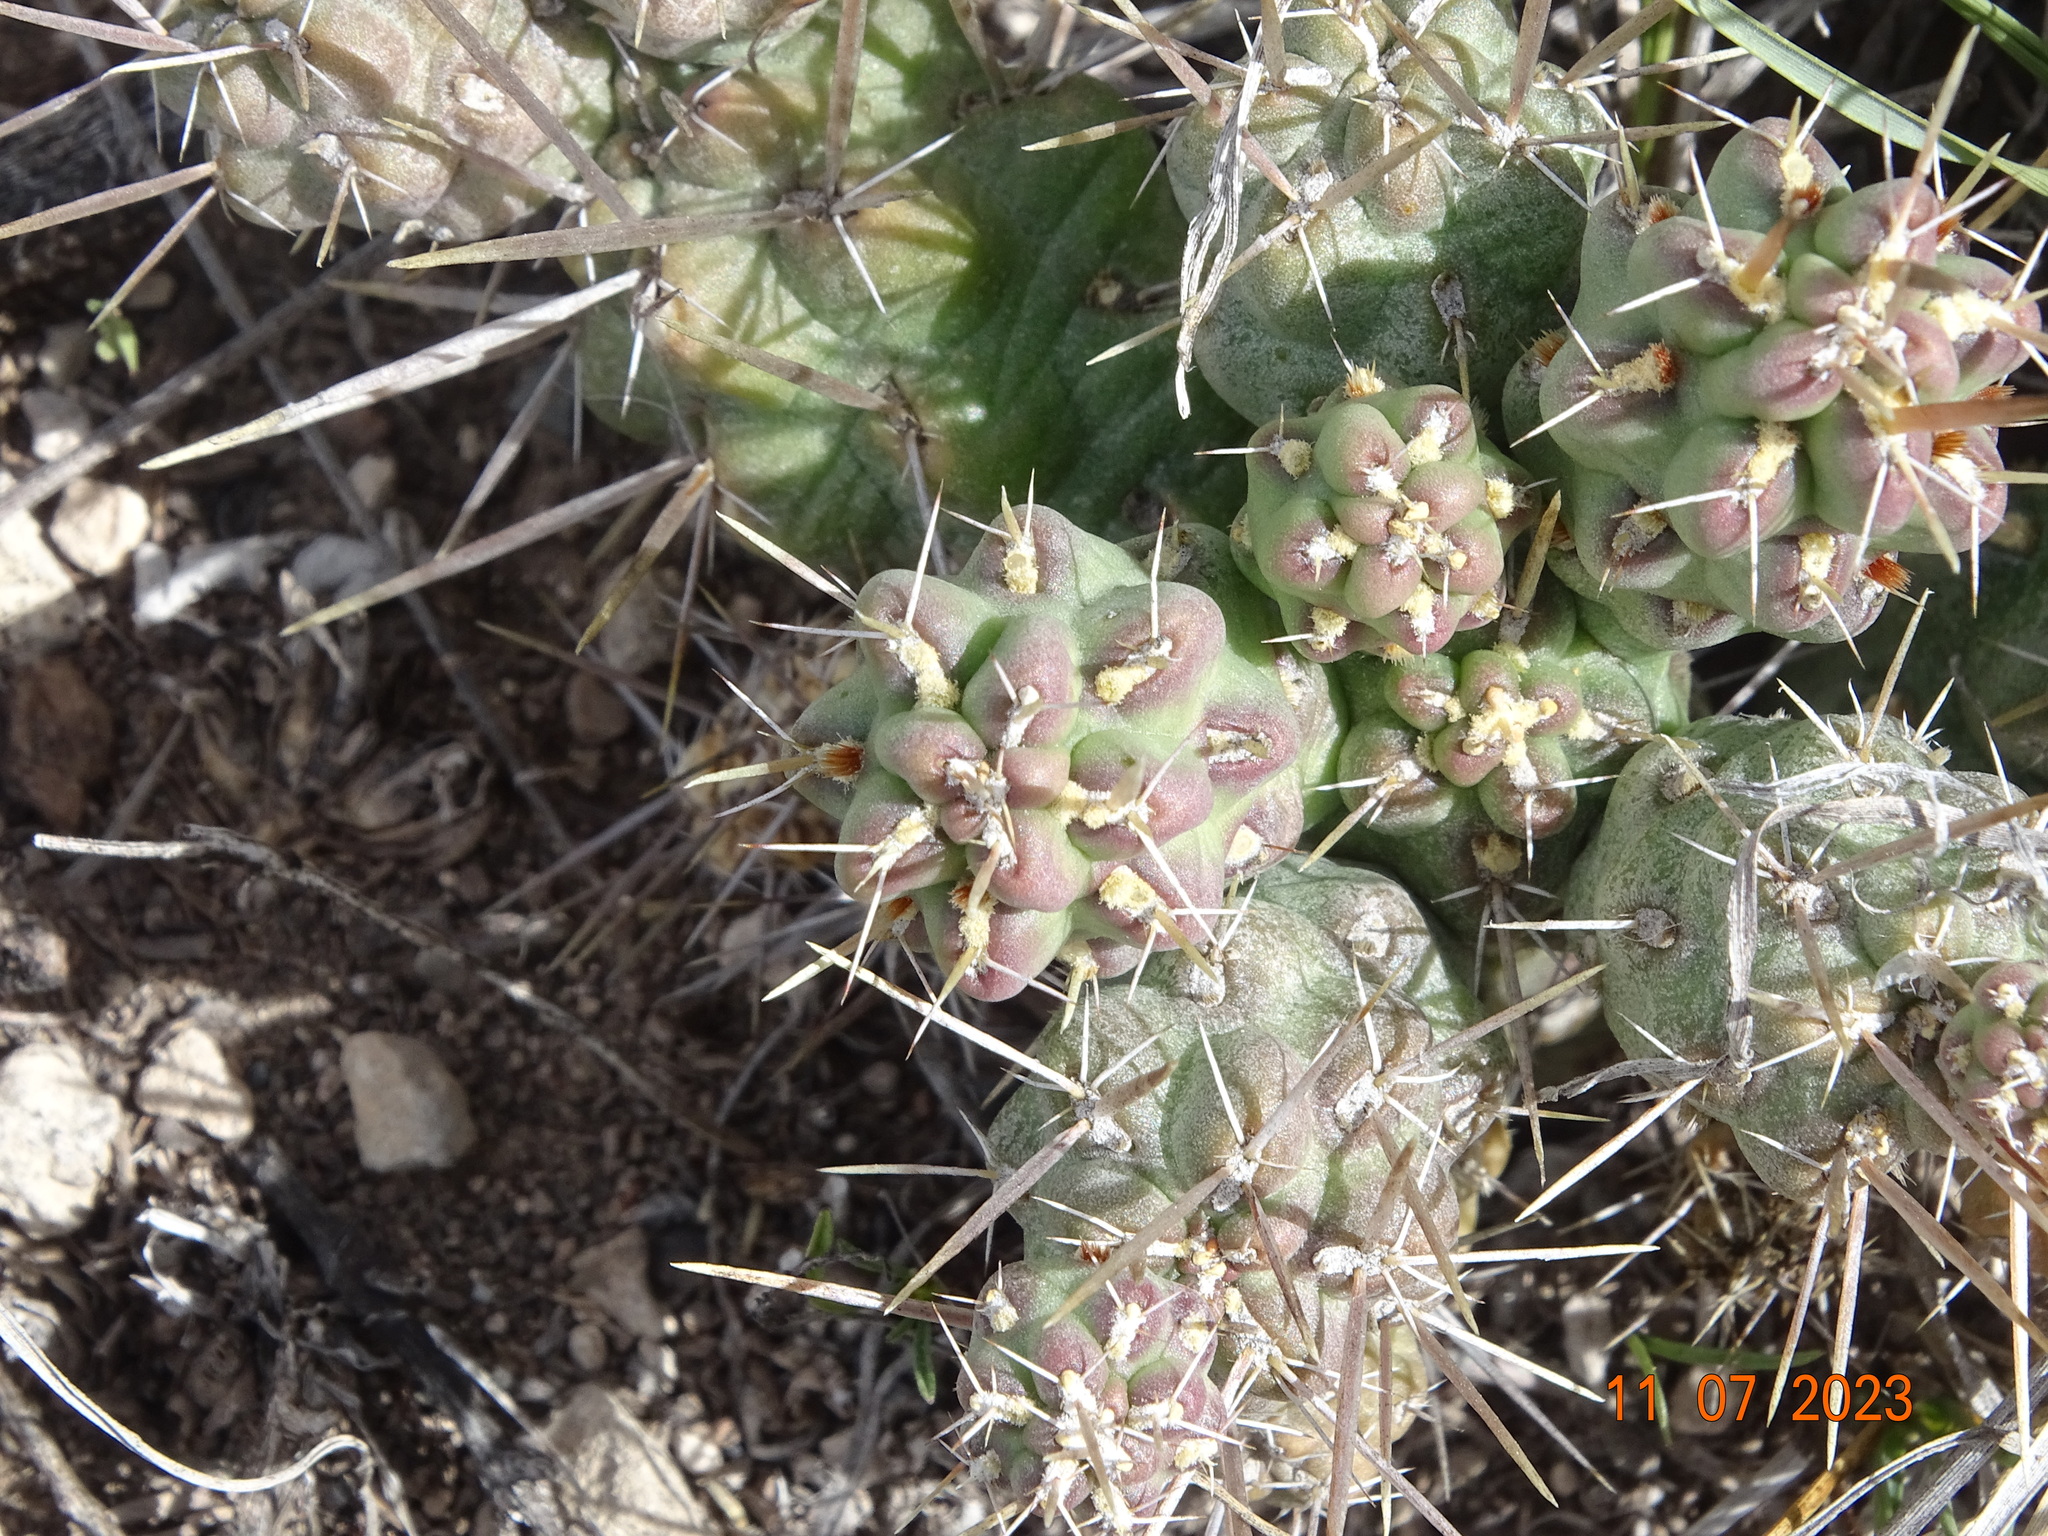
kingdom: Plantae
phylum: Tracheophyta
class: Magnoliopsida
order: Caryophyllales
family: Cactaceae
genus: Cylindropuntia
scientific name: Cylindropuntia tunicata
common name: Sheathed cholla
